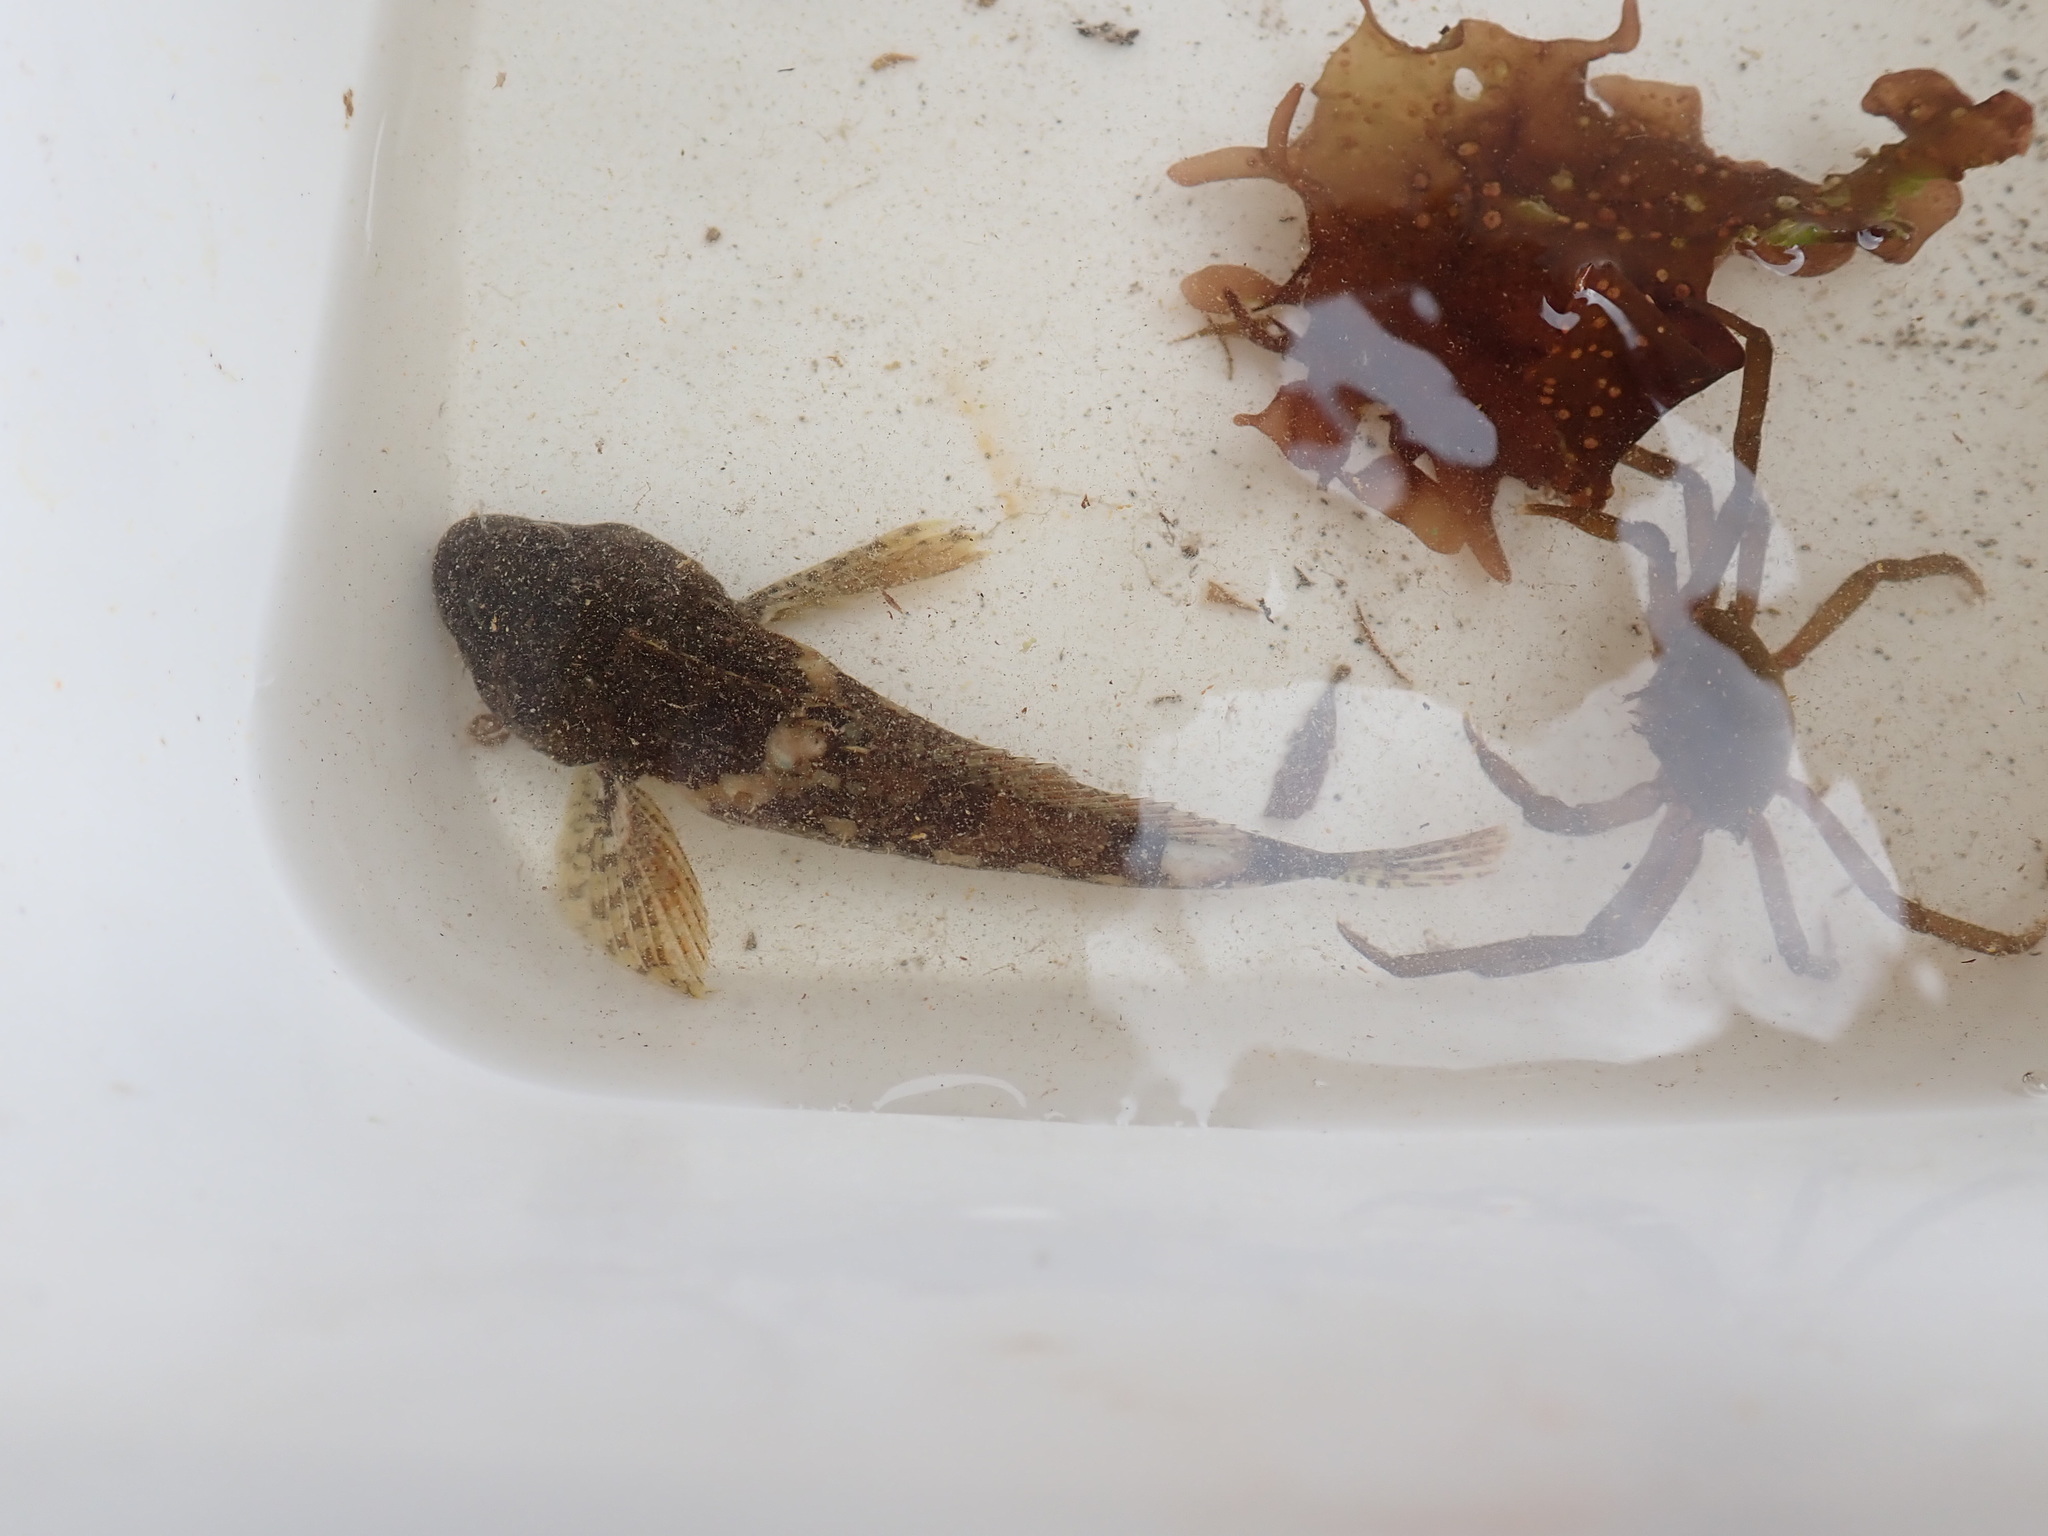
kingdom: Animalia
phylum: Chordata
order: Scorpaeniformes
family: Cottidae
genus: Oligocottus
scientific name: Oligocottus maculosus
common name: Tidepool sculpin
